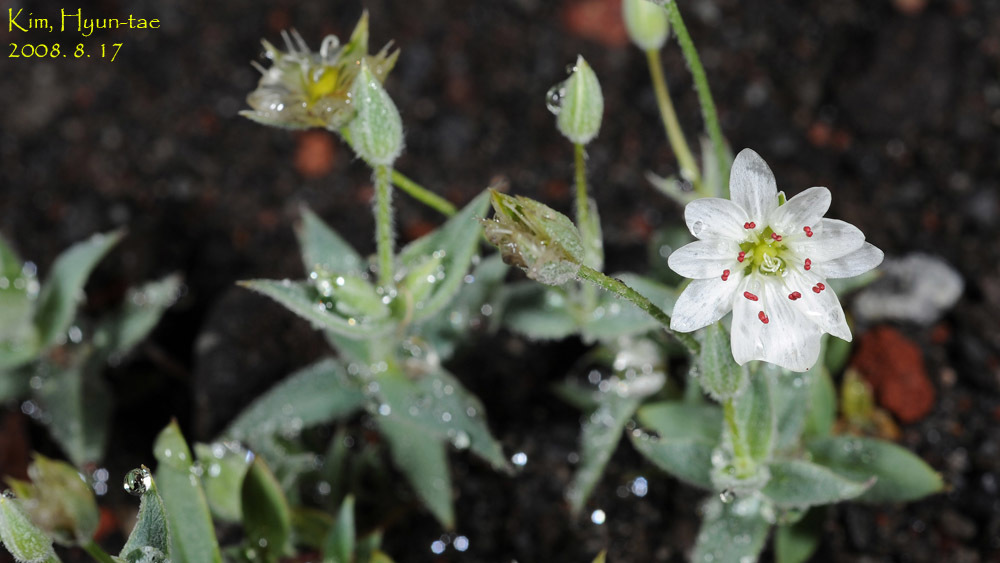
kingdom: Plantae
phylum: Tracheophyta
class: Magnoliopsida
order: Caryophyllales
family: Caryophyllaceae
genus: Stellaria
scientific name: Stellaria eschscholtziana
